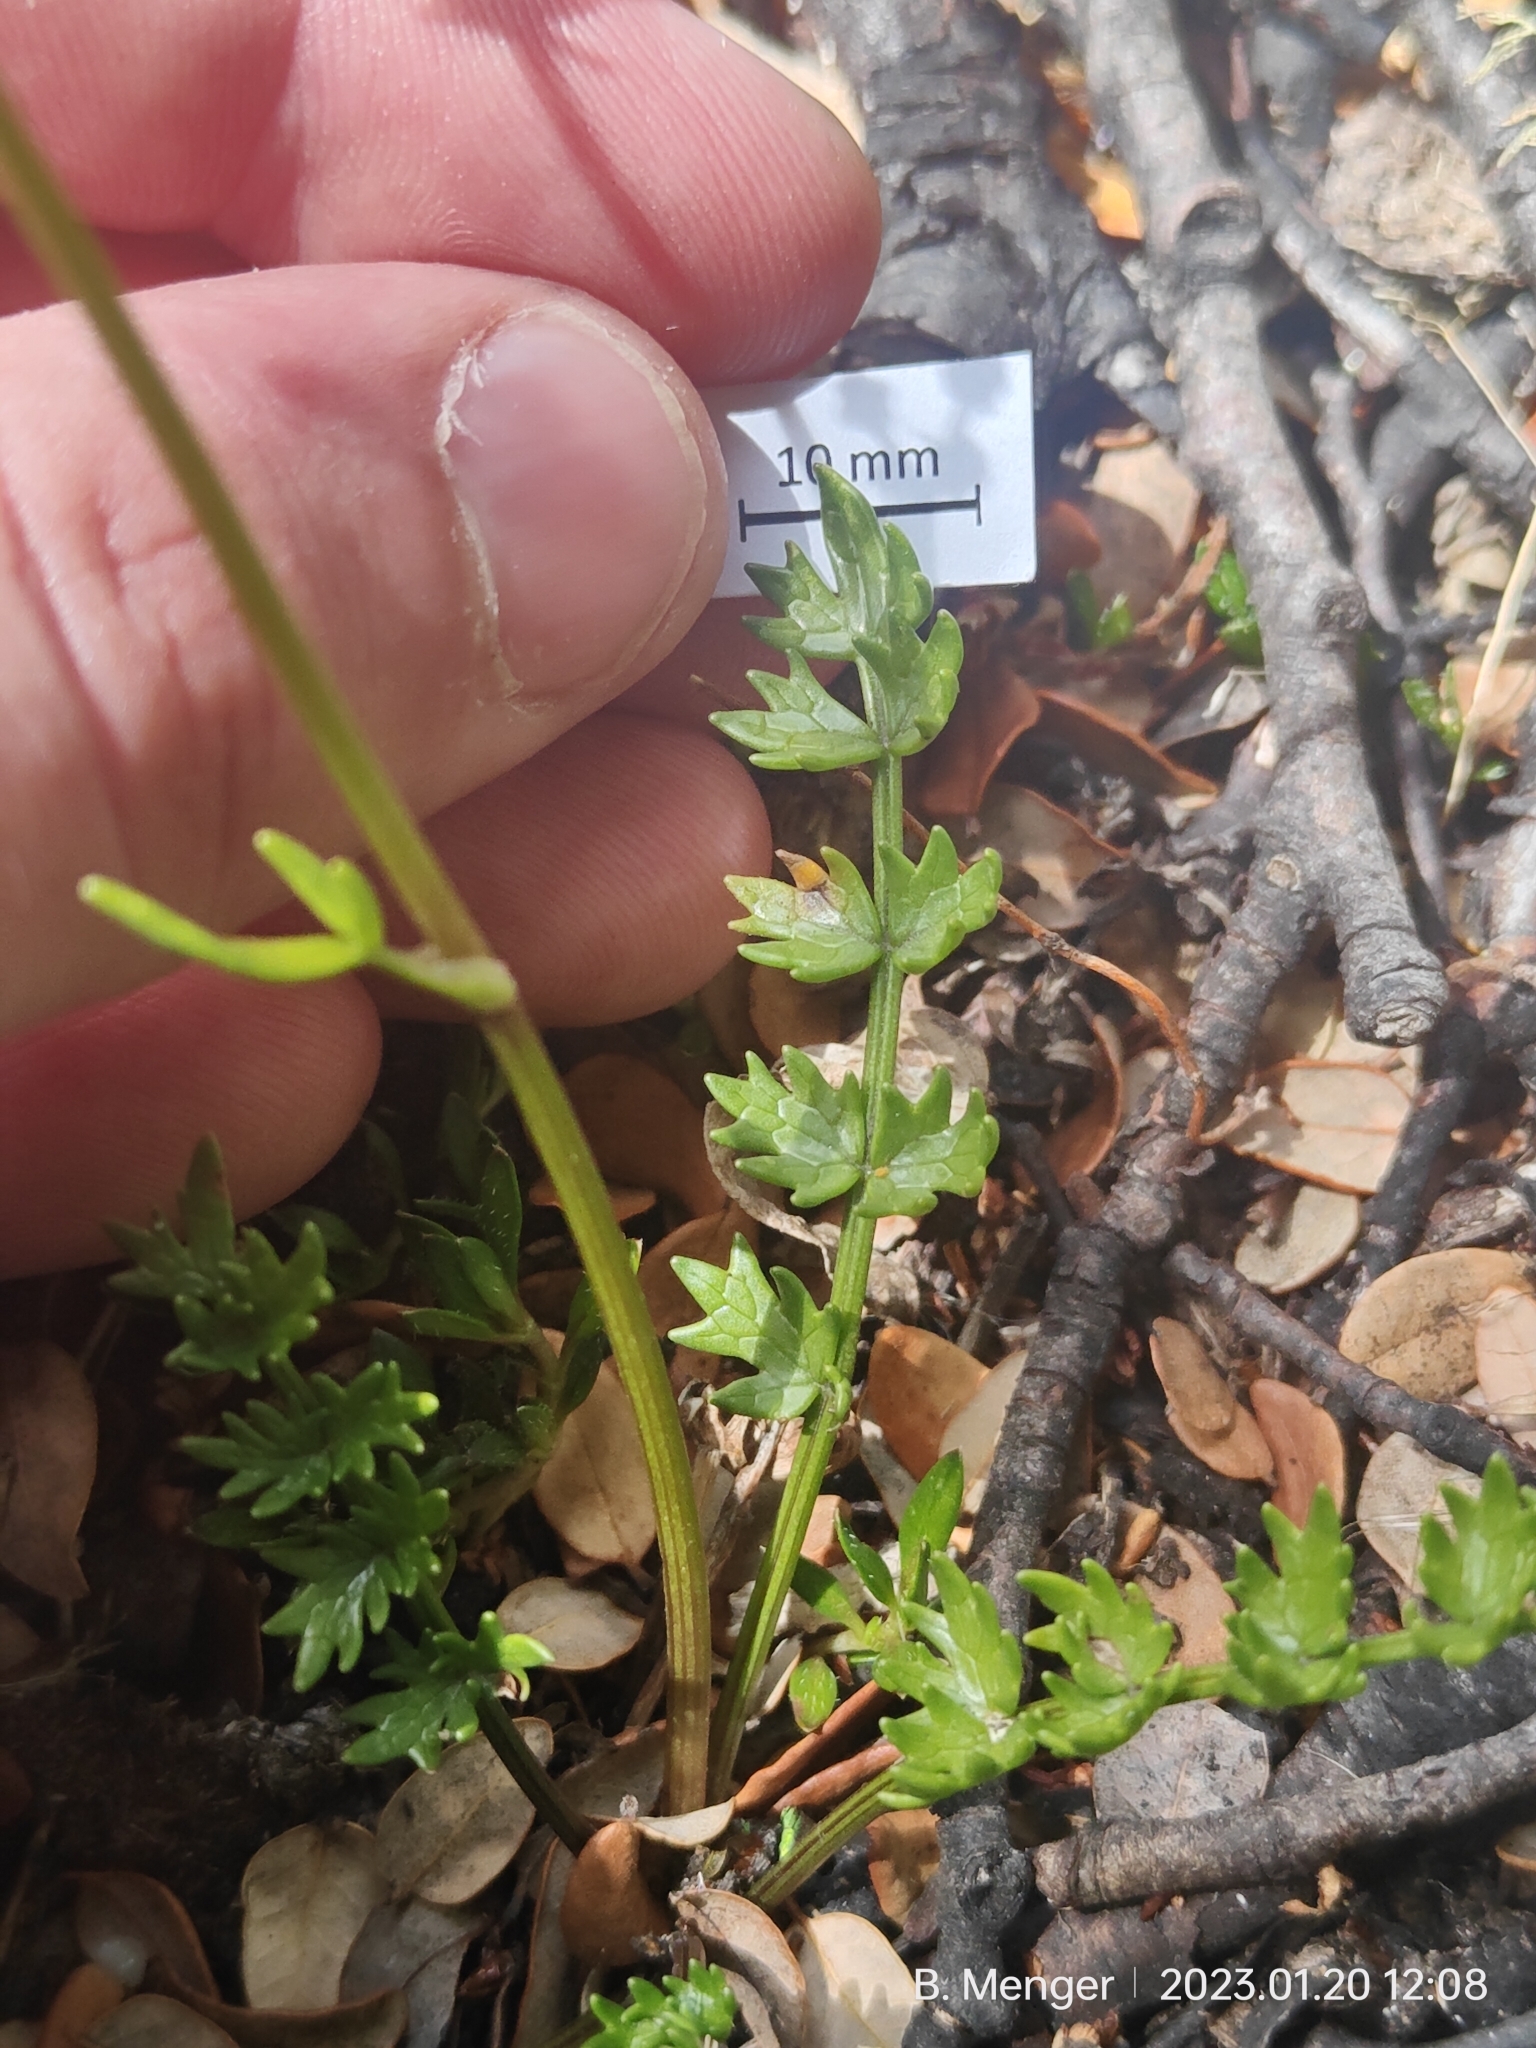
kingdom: Plantae
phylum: Tracheophyta
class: Magnoliopsida
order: Apiales
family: Apiaceae
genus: Anisotome
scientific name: Anisotome aromatica
